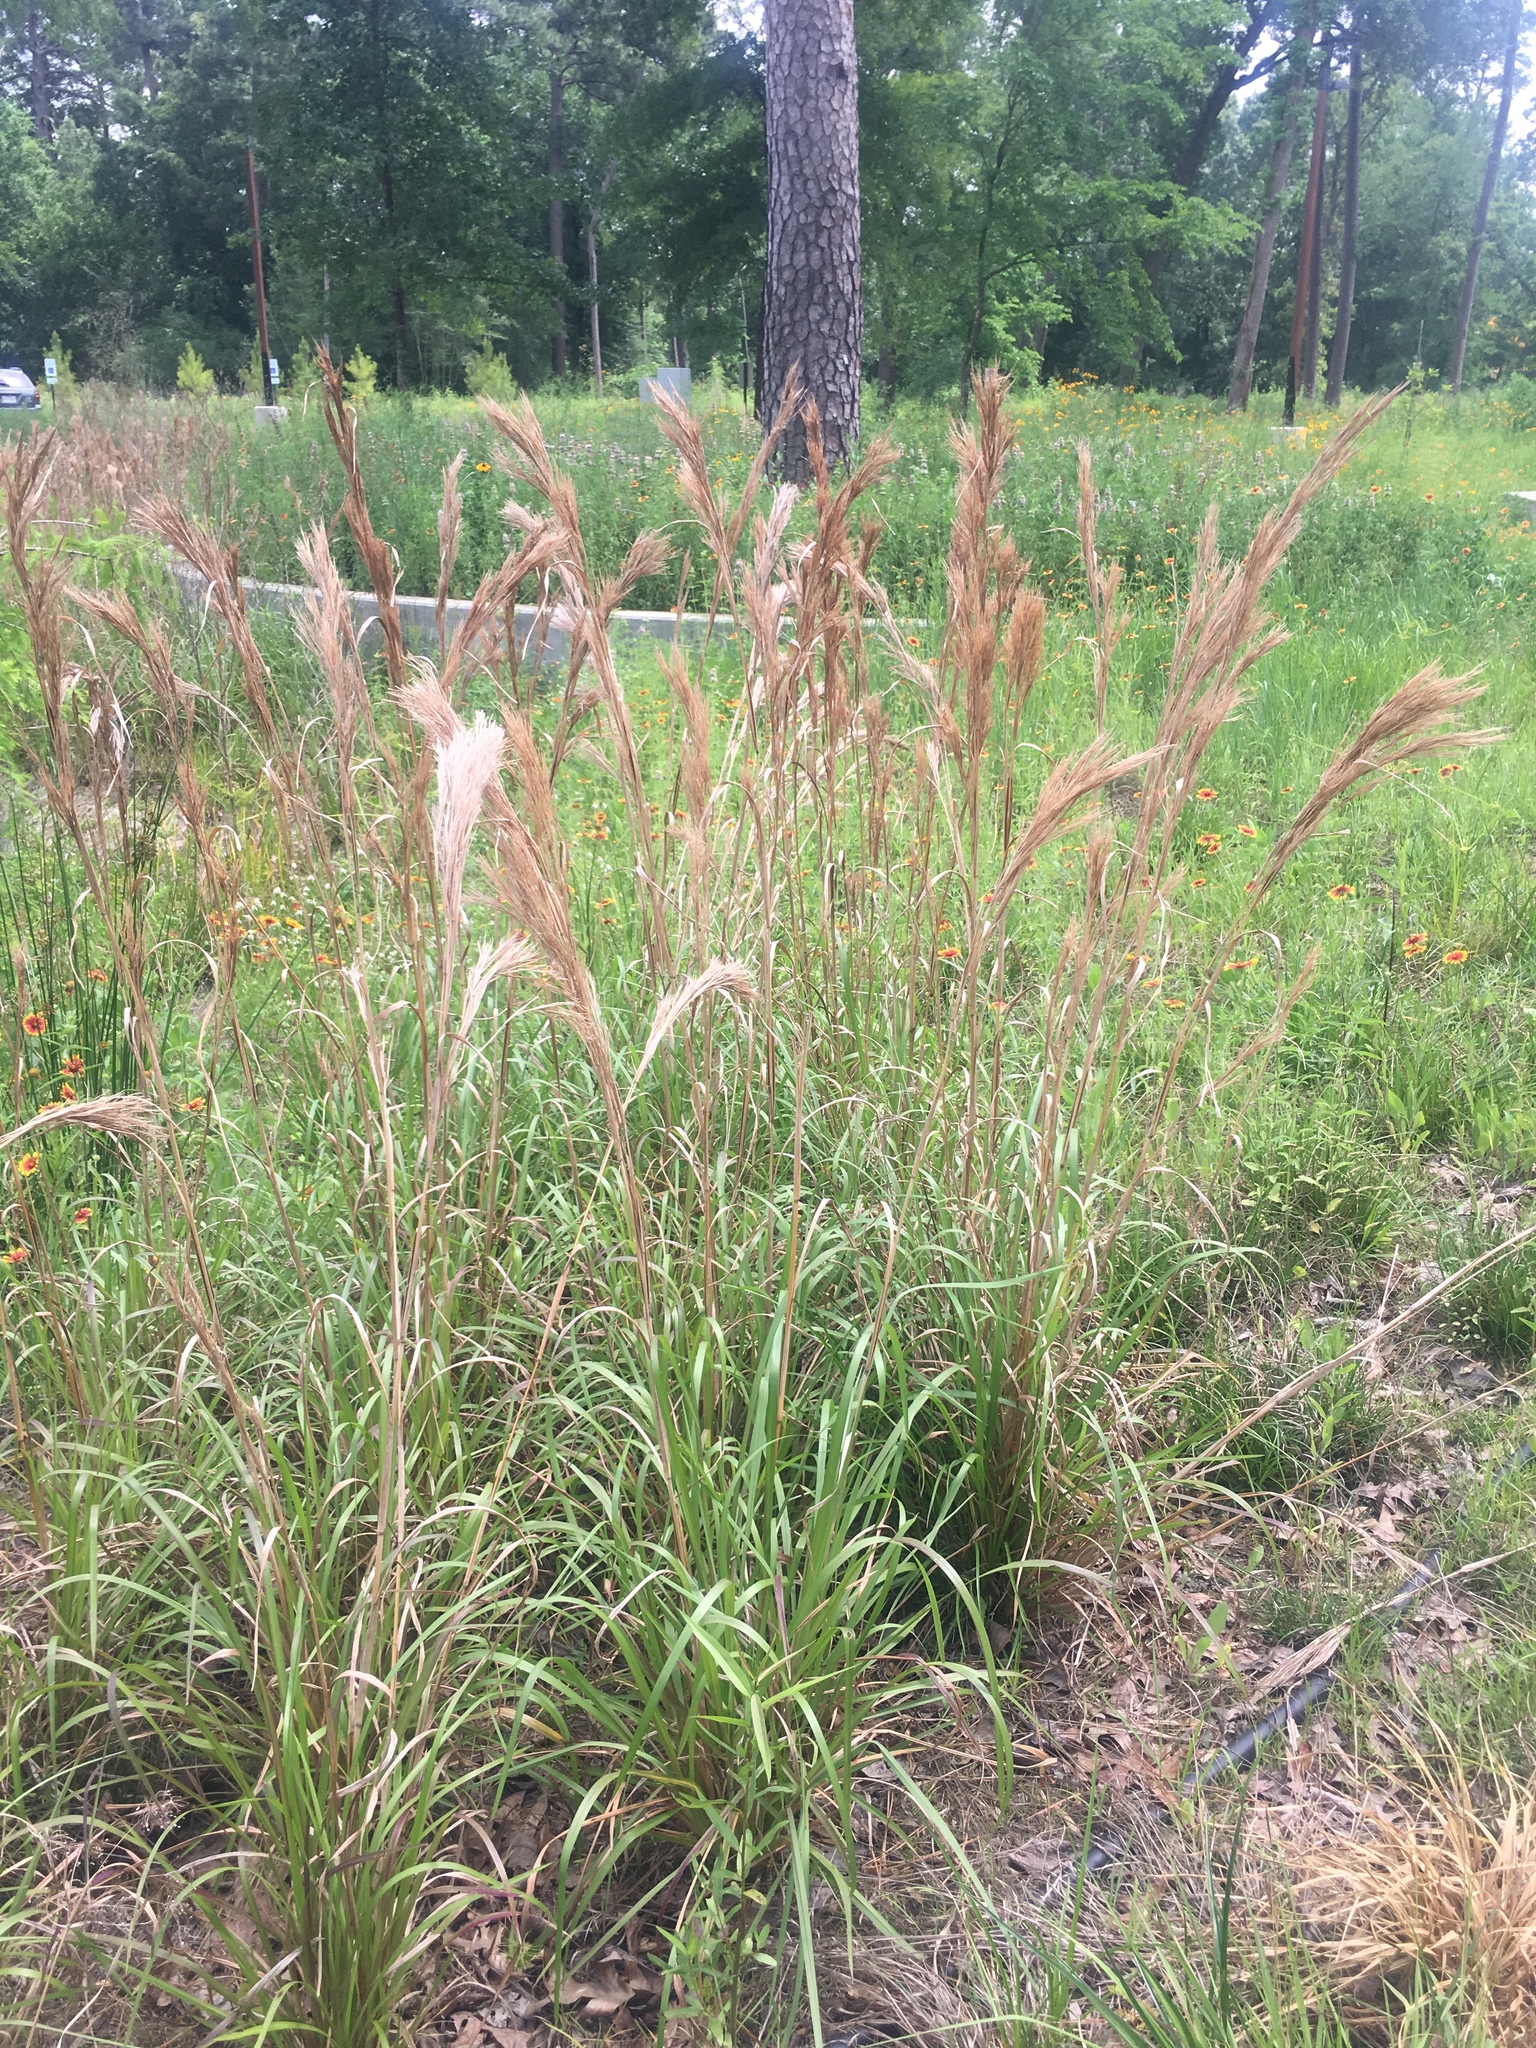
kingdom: Plantae
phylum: Tracheophyta
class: Liliopsida
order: Poales
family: Poaceae
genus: Andropogon
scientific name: Andropogon tenuispatheus
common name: Bushy bluestem
